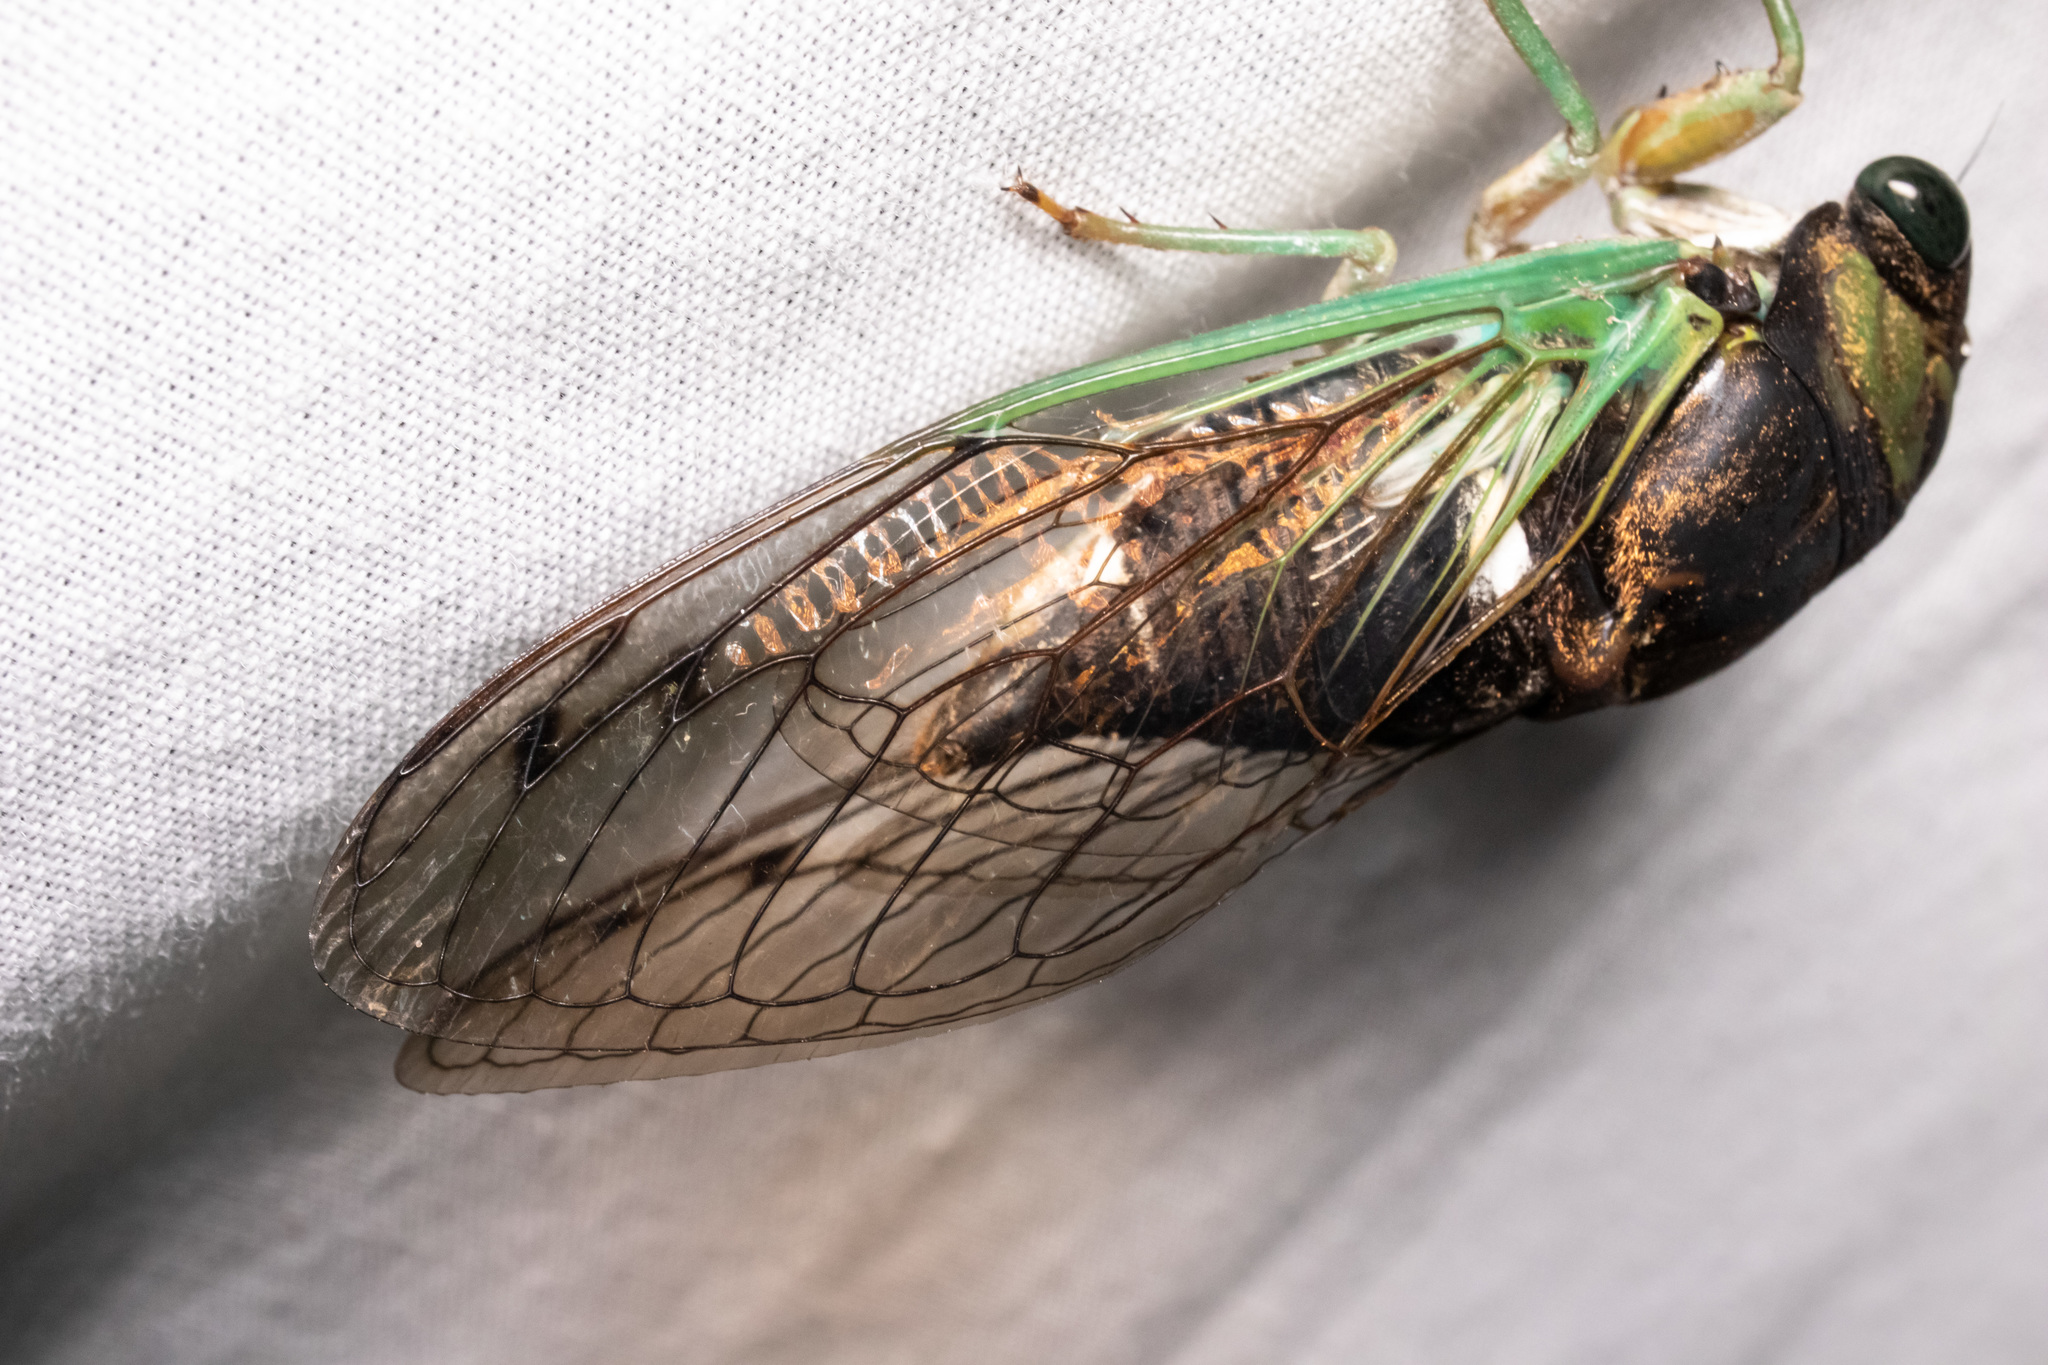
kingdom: Animalia
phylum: Arthropoda
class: Insecta
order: Hemiptera
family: Cicadidae
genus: Neotibicen
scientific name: Neotibicen tibicen
